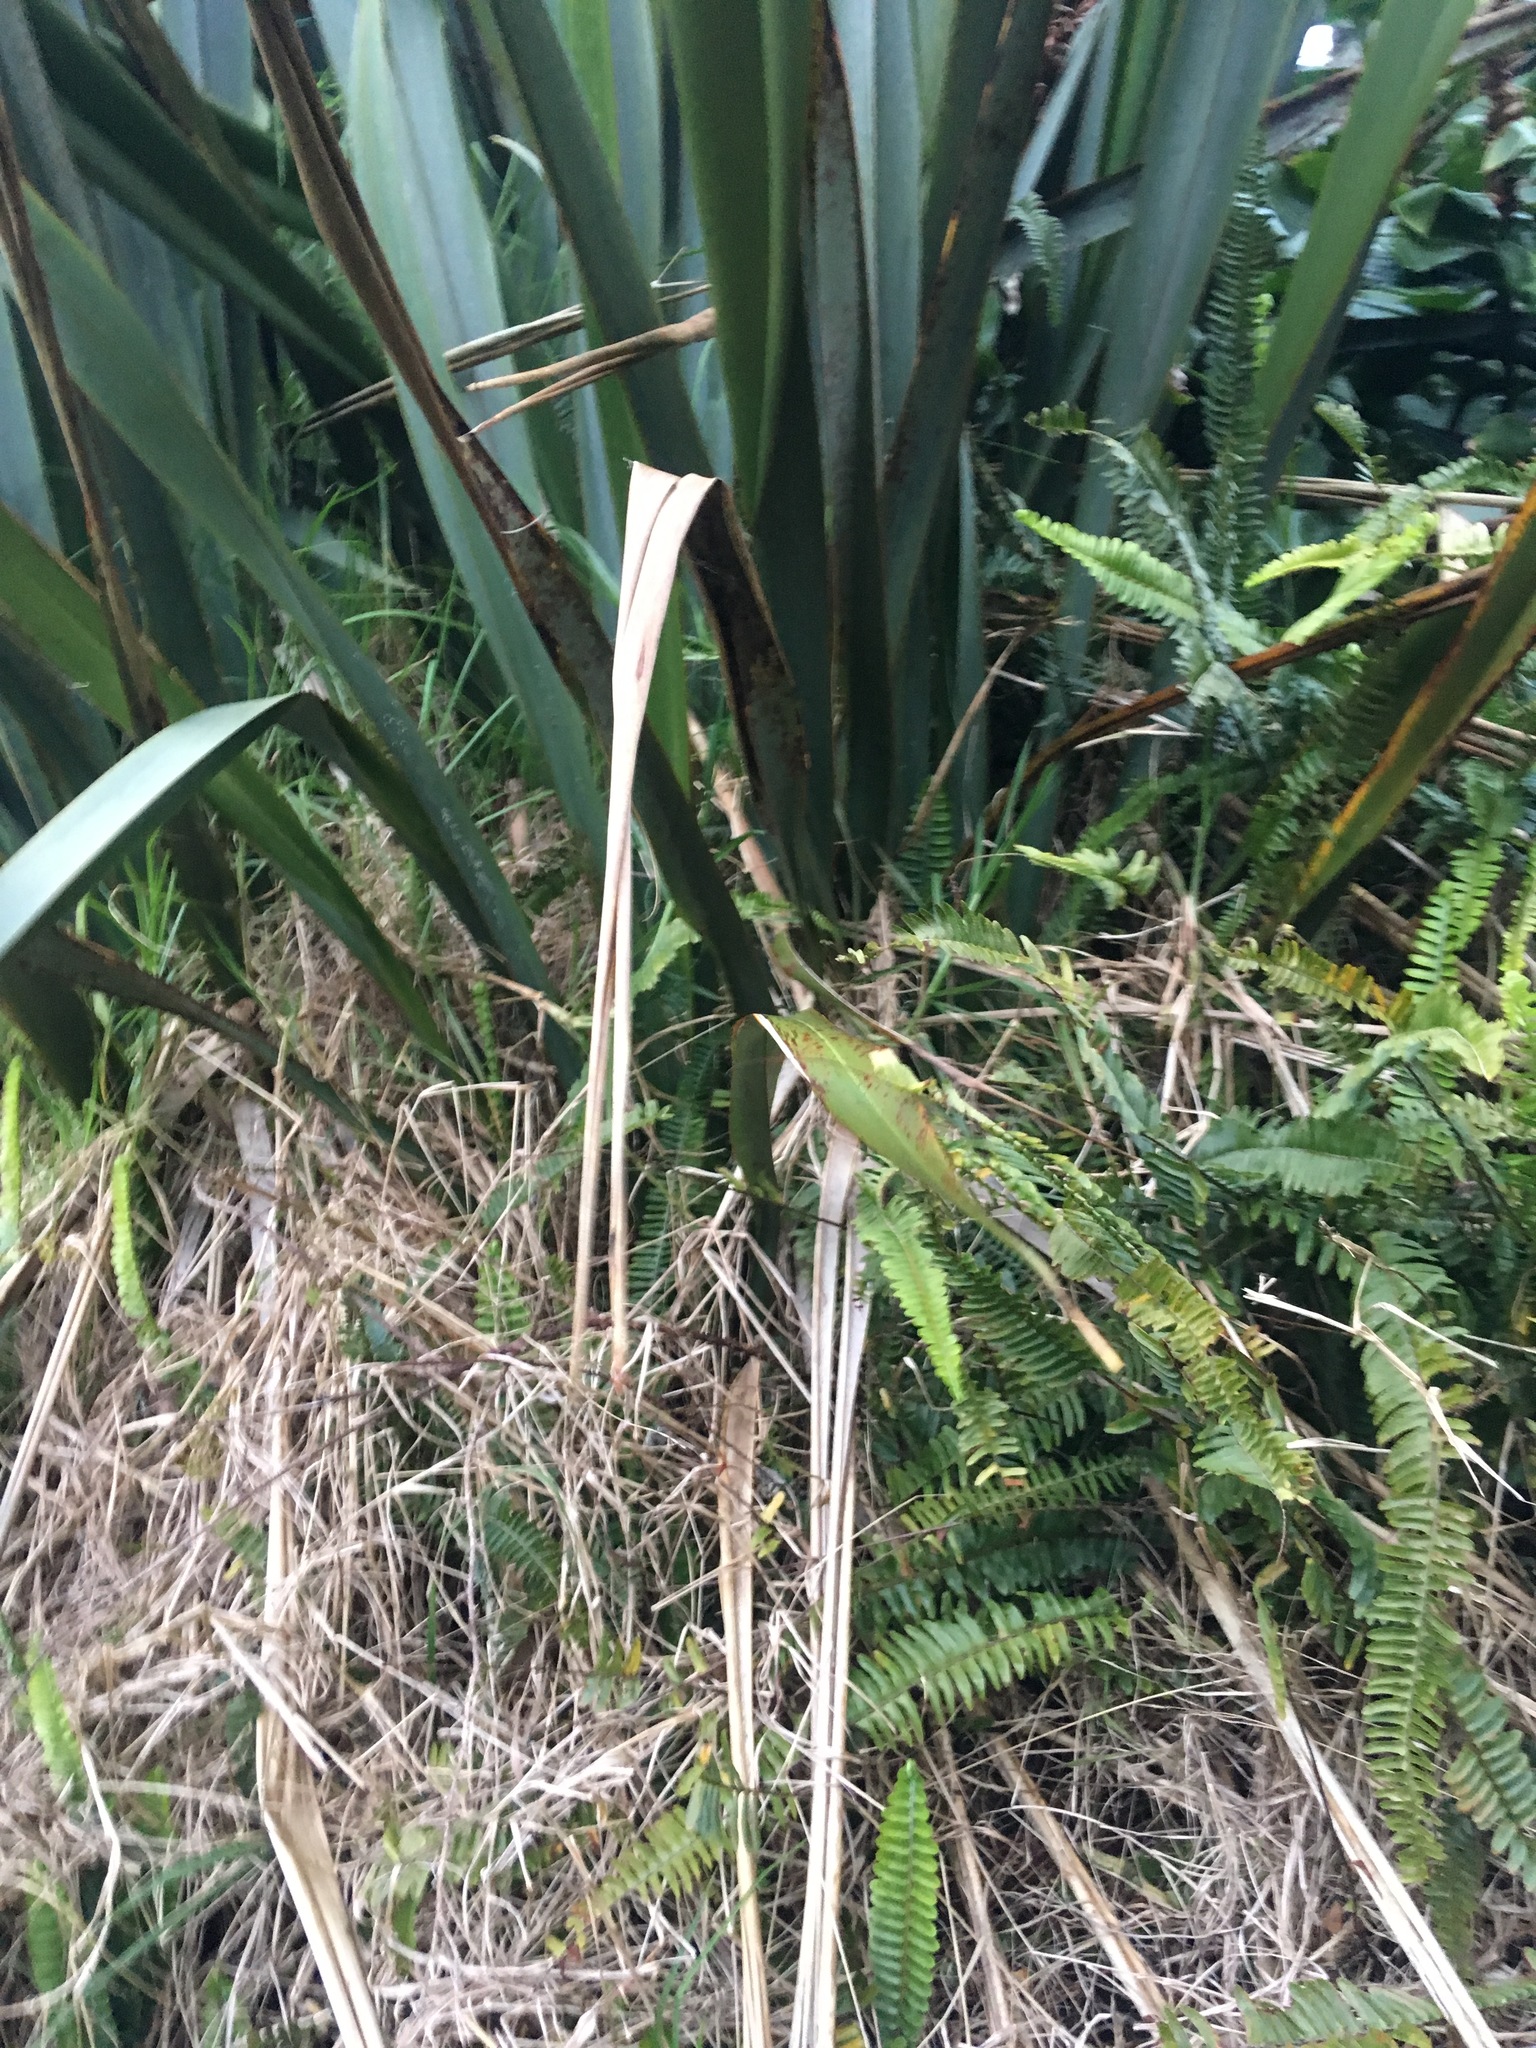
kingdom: Plantae
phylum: Tracheophyta
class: Liliopsida
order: Asparagales
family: Asphodelaceae
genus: Phormium
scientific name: Phormium tenax
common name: New zealand flax
